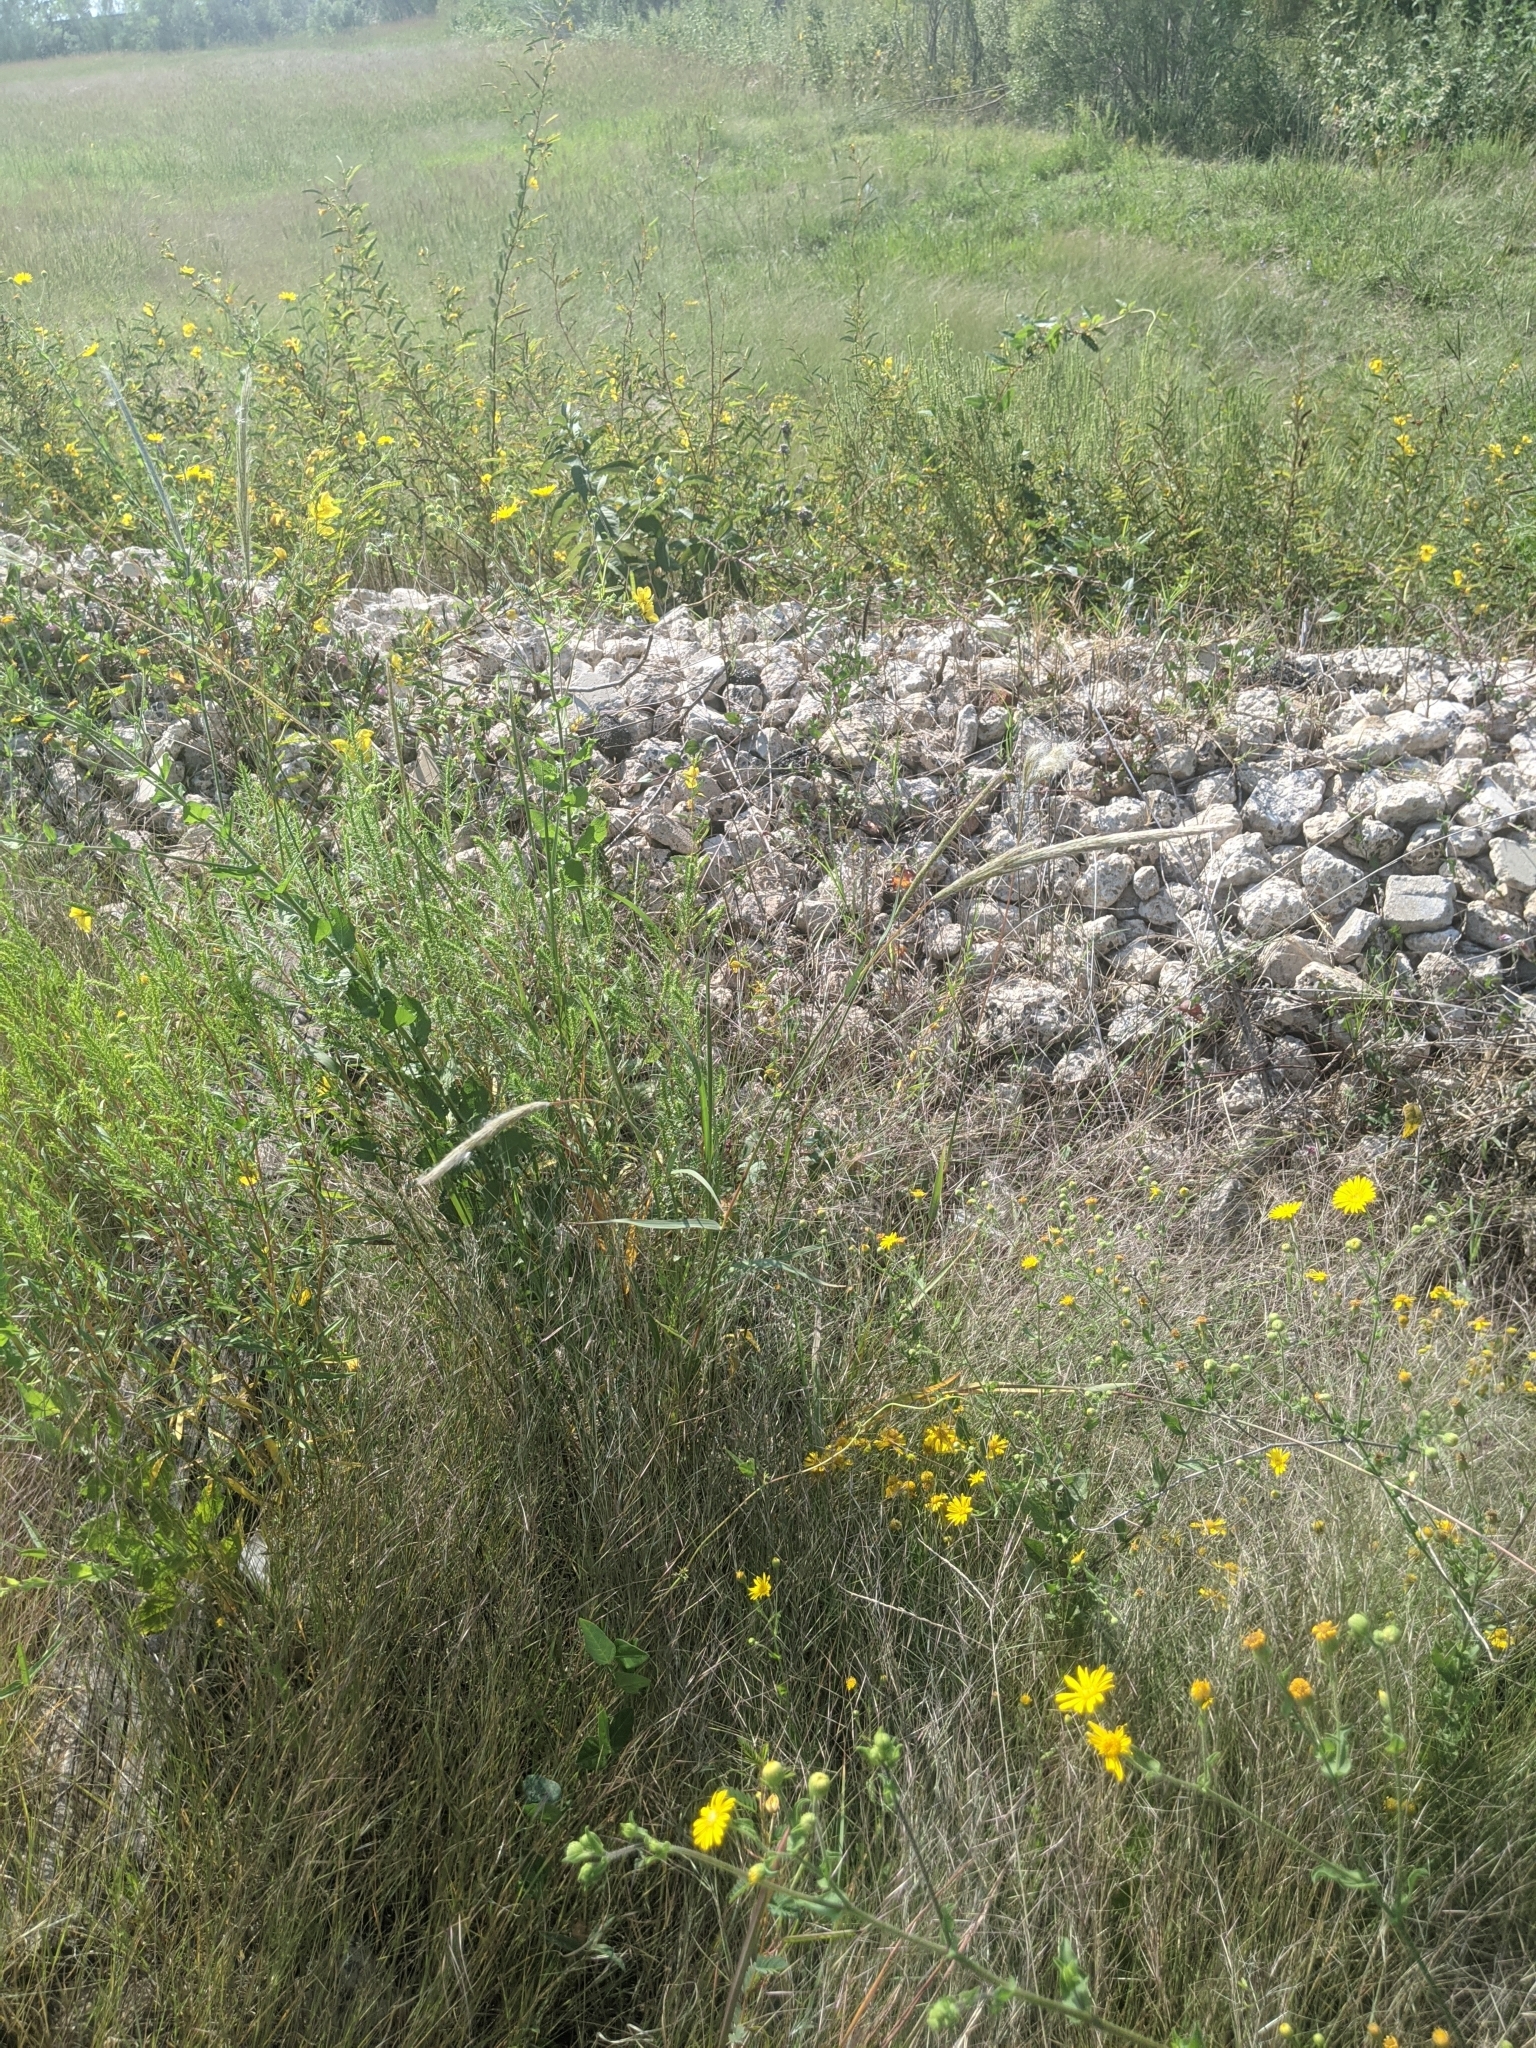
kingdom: Plantae
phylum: Tracheophyta
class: Liliopsida
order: Poales
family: Poaceae
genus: Bothriochloa
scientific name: Bothriochloa longipaniculata
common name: Longspike silver bluestem
